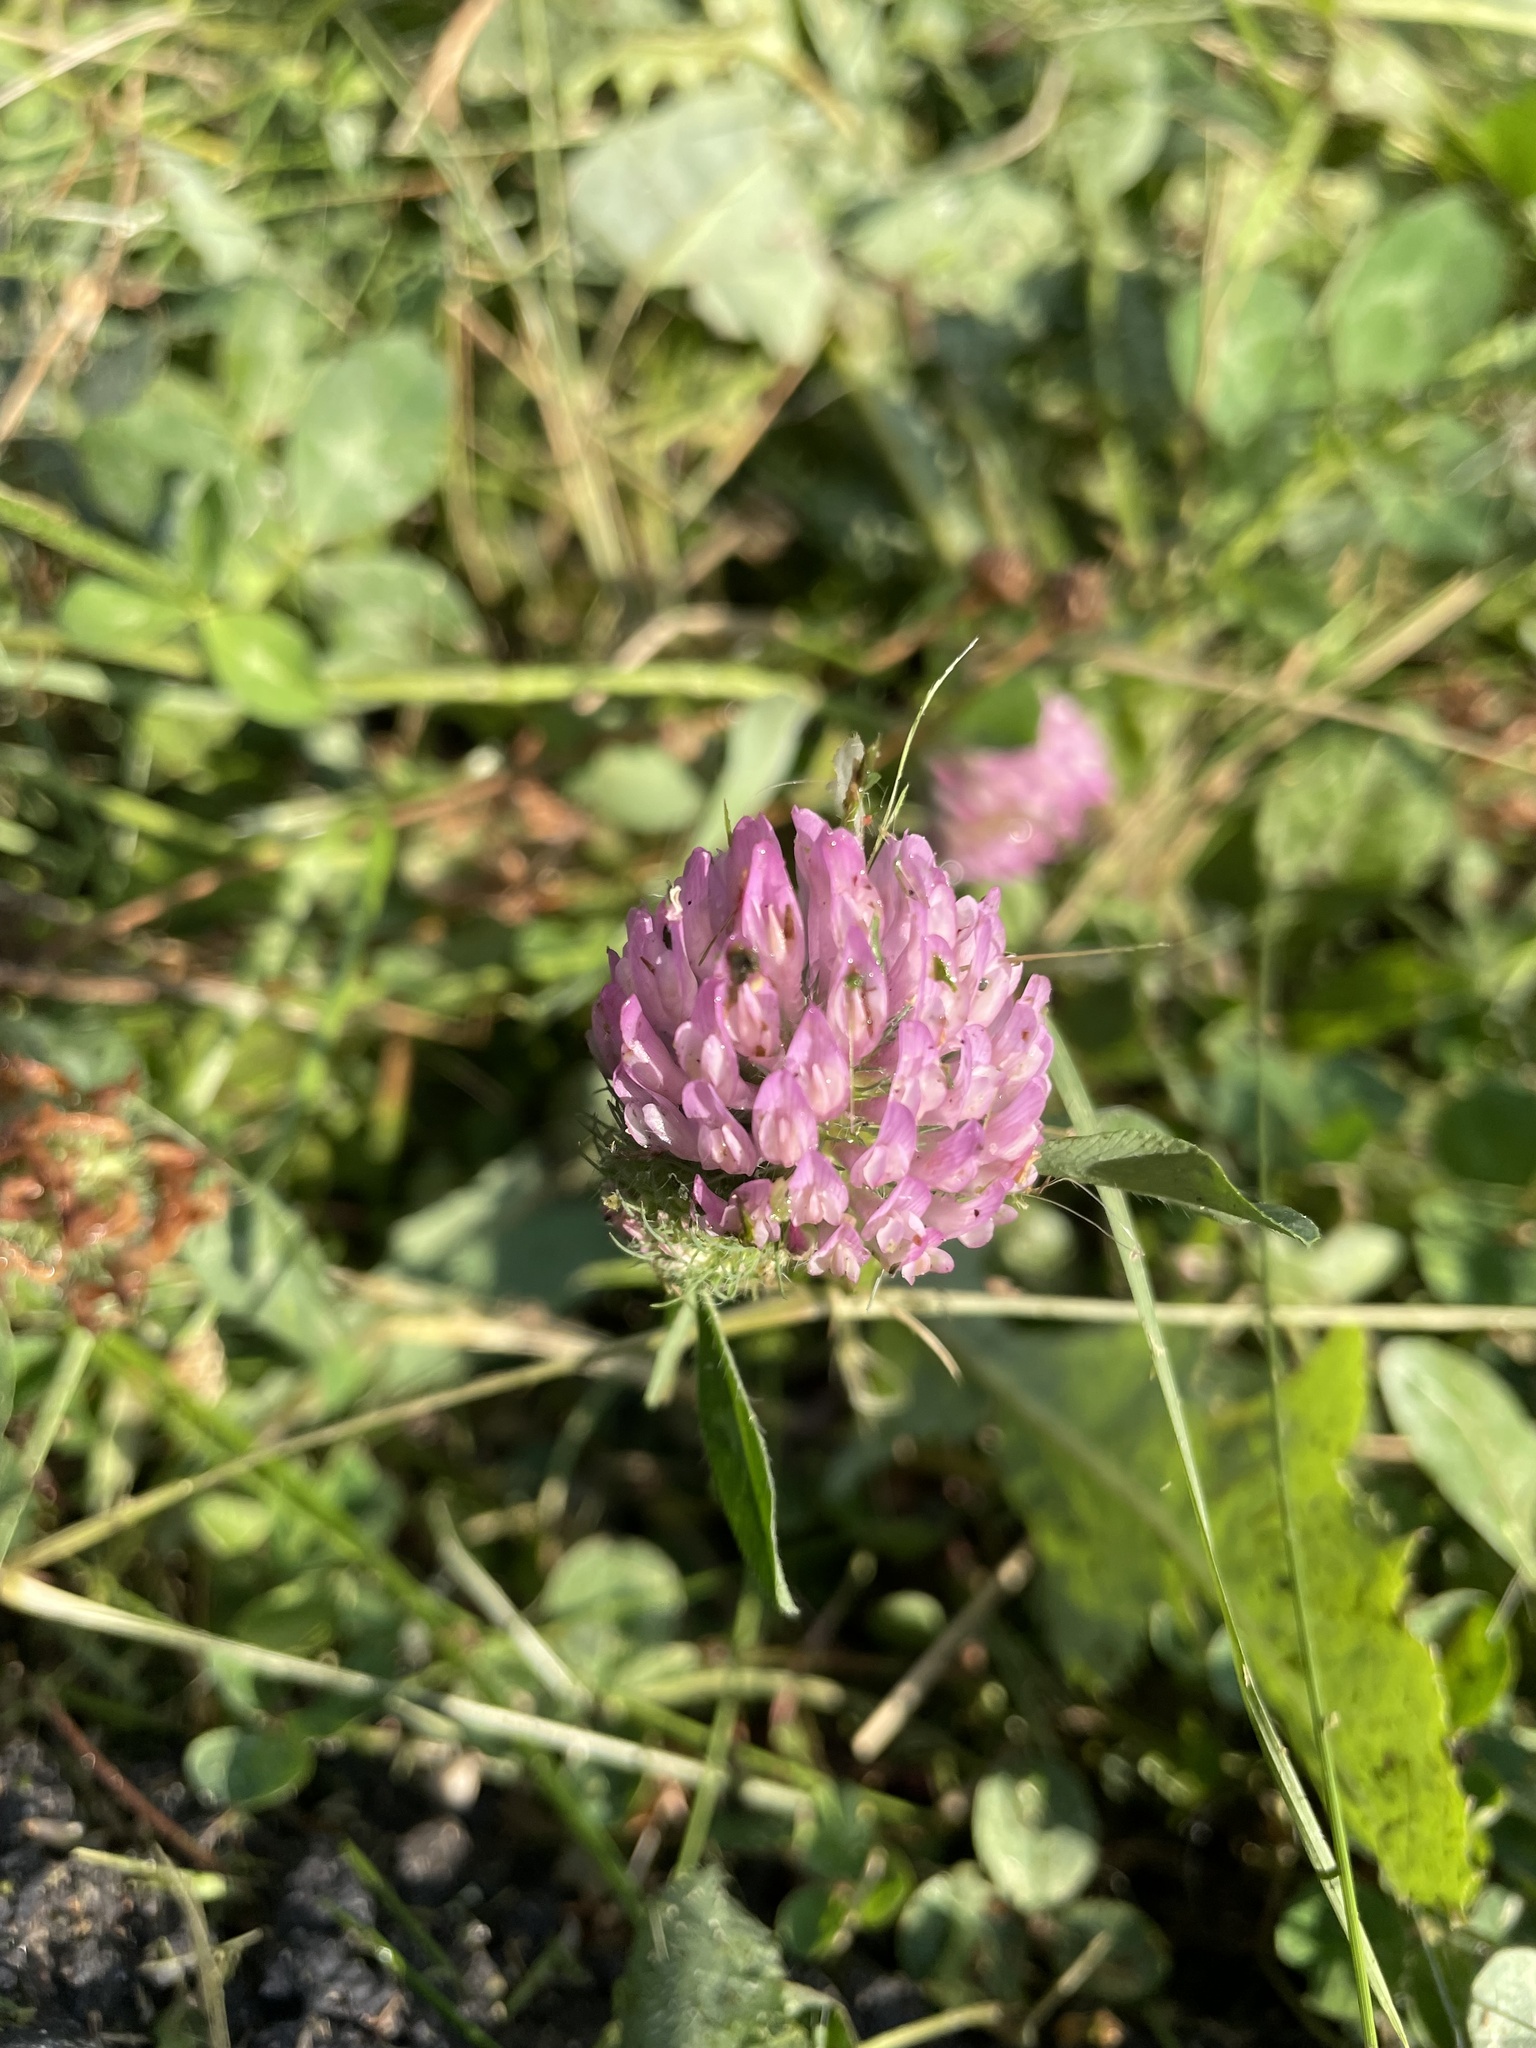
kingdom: Plantae
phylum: Tracheophyta
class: Magnoliopsida
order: Fabales
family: Fabaceae
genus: Trifolium
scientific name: Trifolium pratense
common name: Red clover
